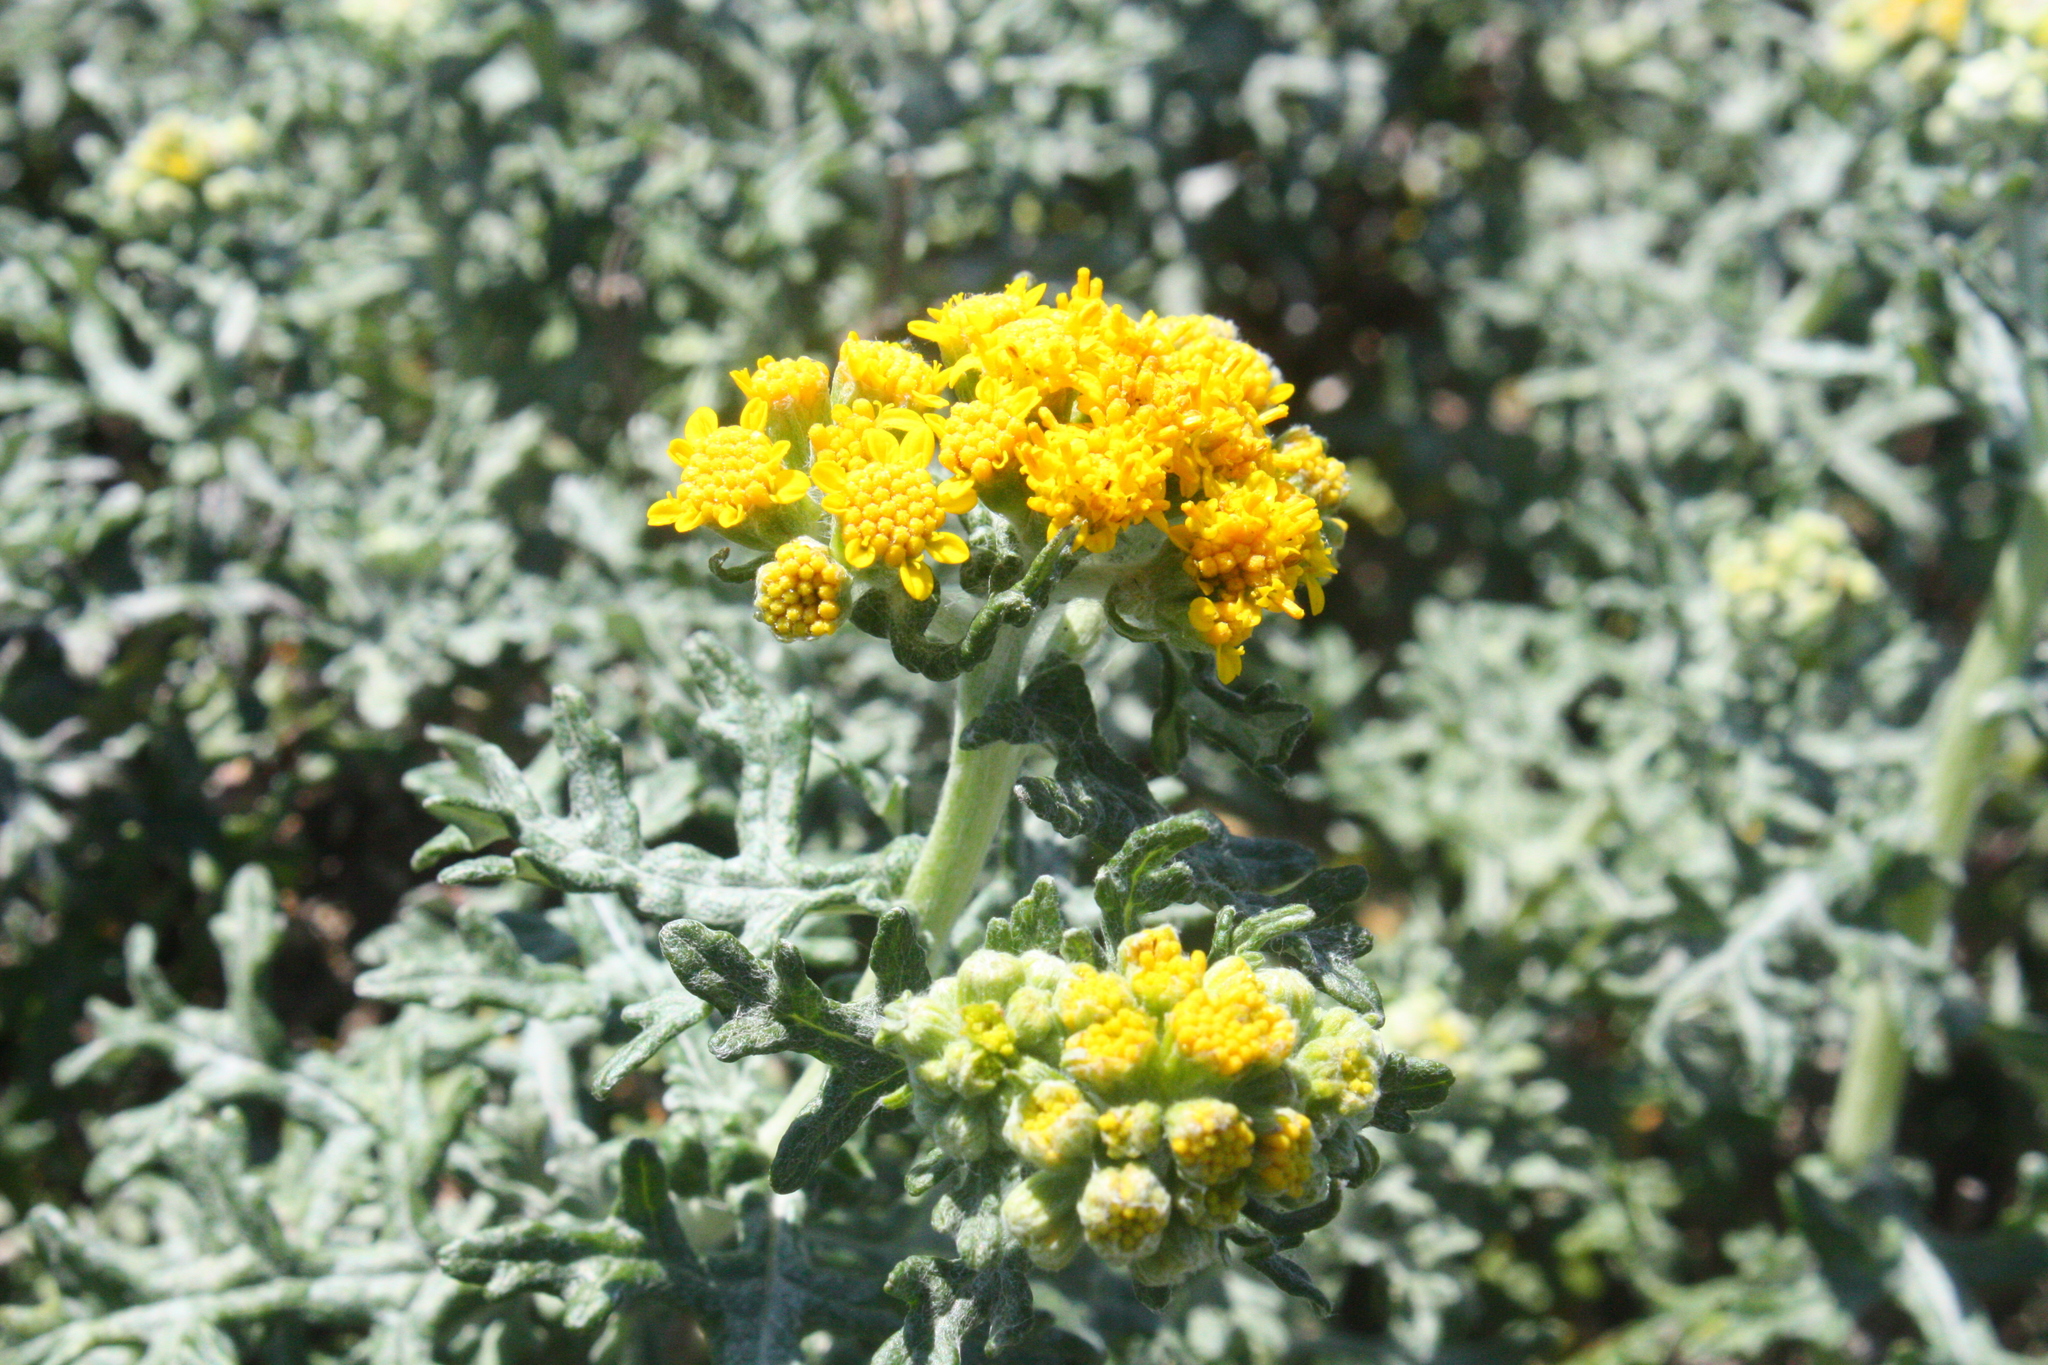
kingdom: Plantae
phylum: Tracheophyta
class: Magnoliopsida
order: Asterales
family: Asteraceae
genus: Eriophyllum
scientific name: Eriophyllum staechadifolium
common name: Lizardtail
